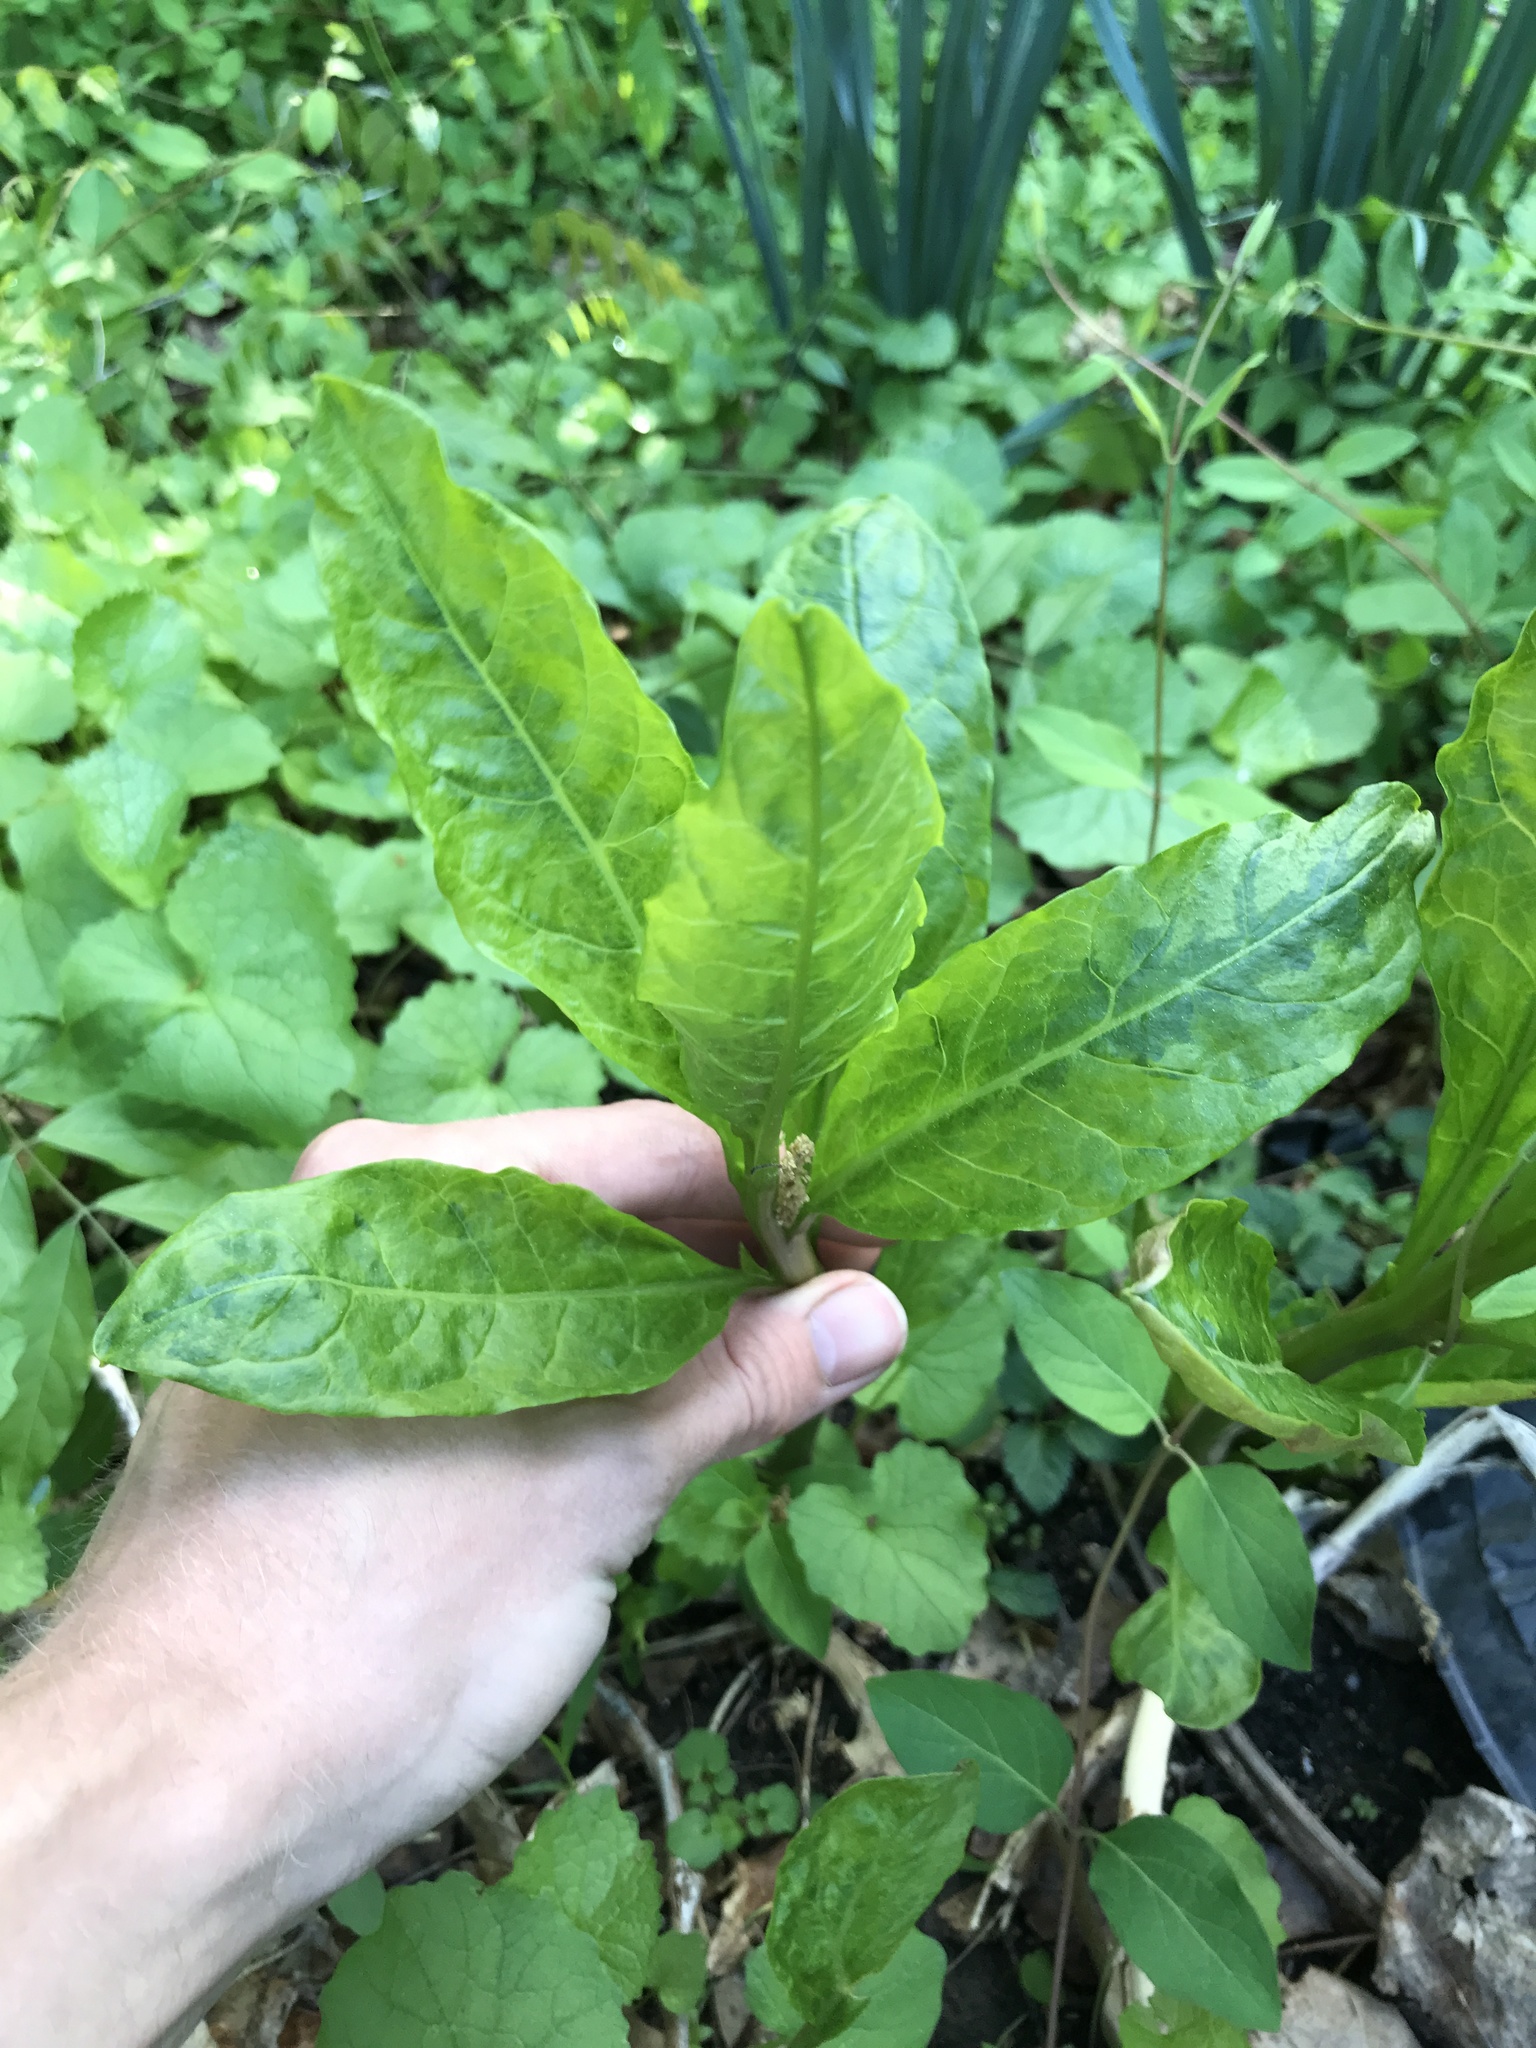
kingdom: Plantae
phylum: Tracheophyta
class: Magnoliopsida
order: Caryophyllales
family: Phytolaccaceae
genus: Phytolacca
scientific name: Phytolacca americana
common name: American pokeweed
